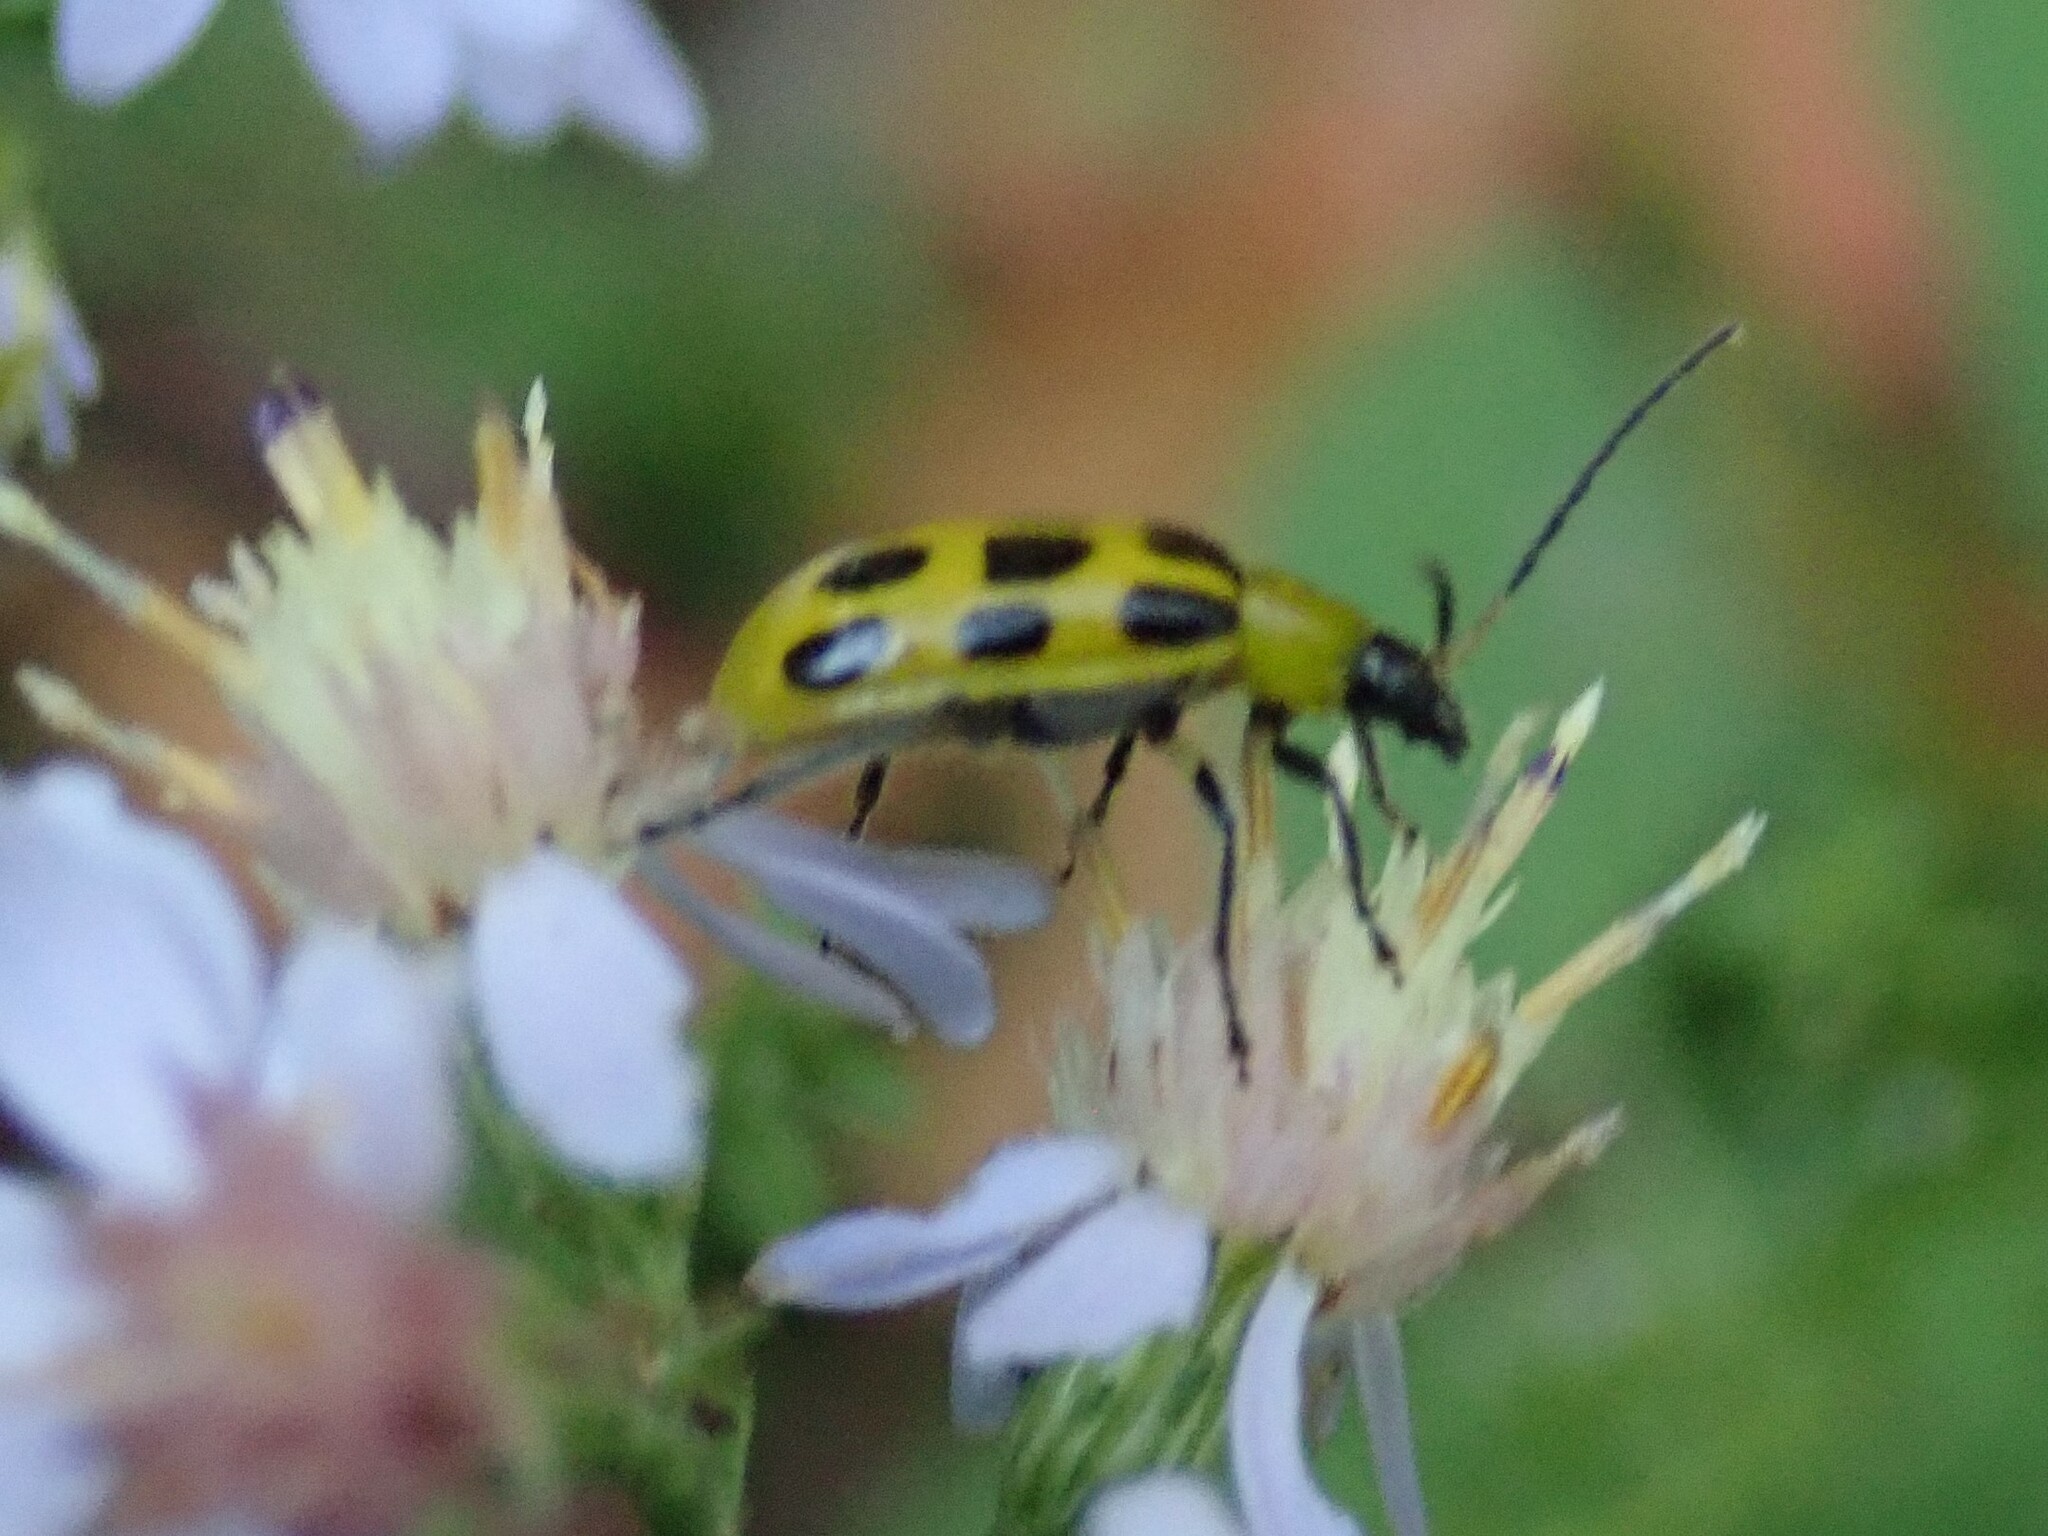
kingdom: Animalia
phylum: Arthropoda
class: Insecta
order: Coleoptera
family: Chrysomelidae
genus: Diabrotica
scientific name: Diabrotica undecimpunctata
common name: Spotted cucumber beetle
